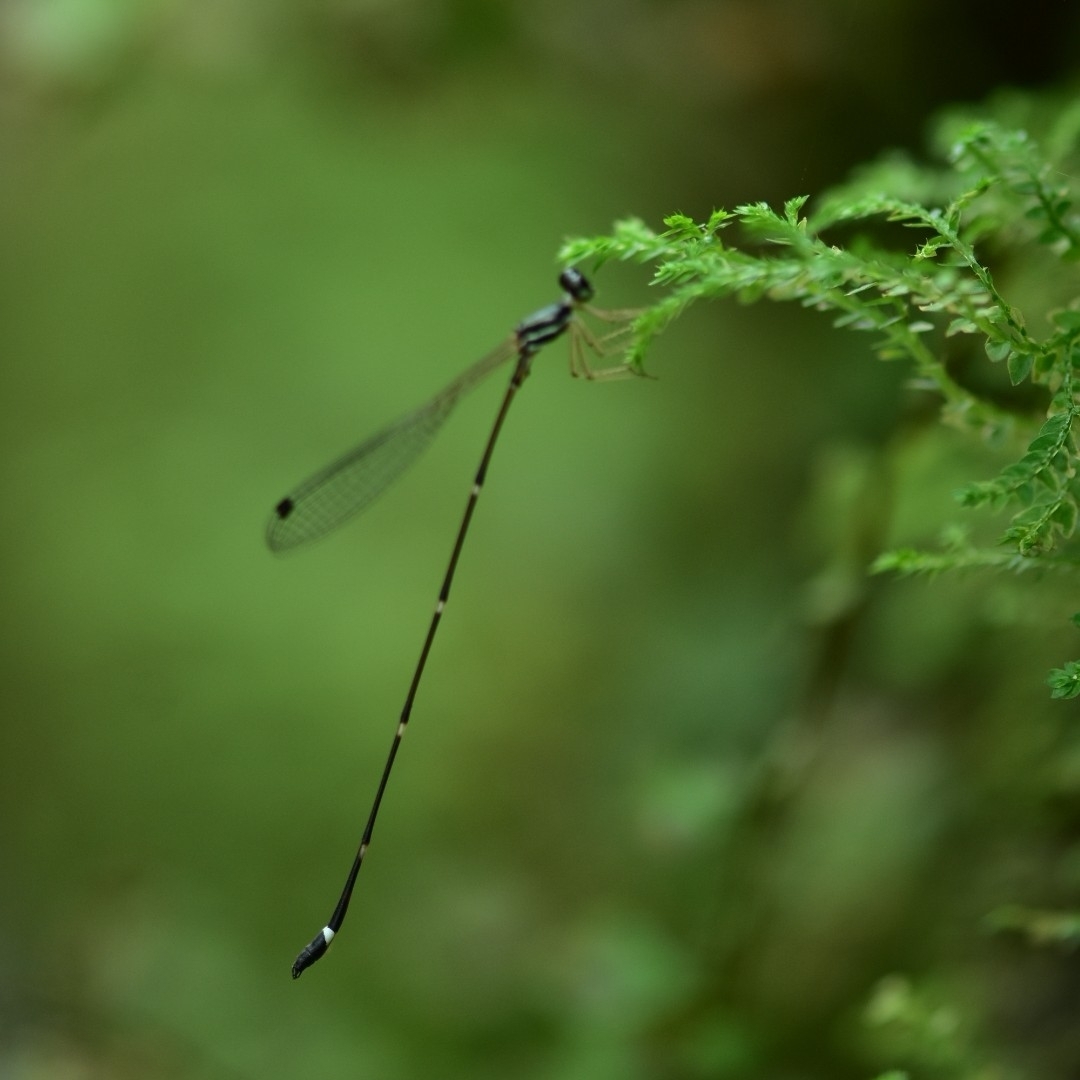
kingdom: Animalia
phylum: Arthropoda
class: Insecta
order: Odonata
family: Platystictidae
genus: Protosticta
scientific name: Protosticta gravelyi
